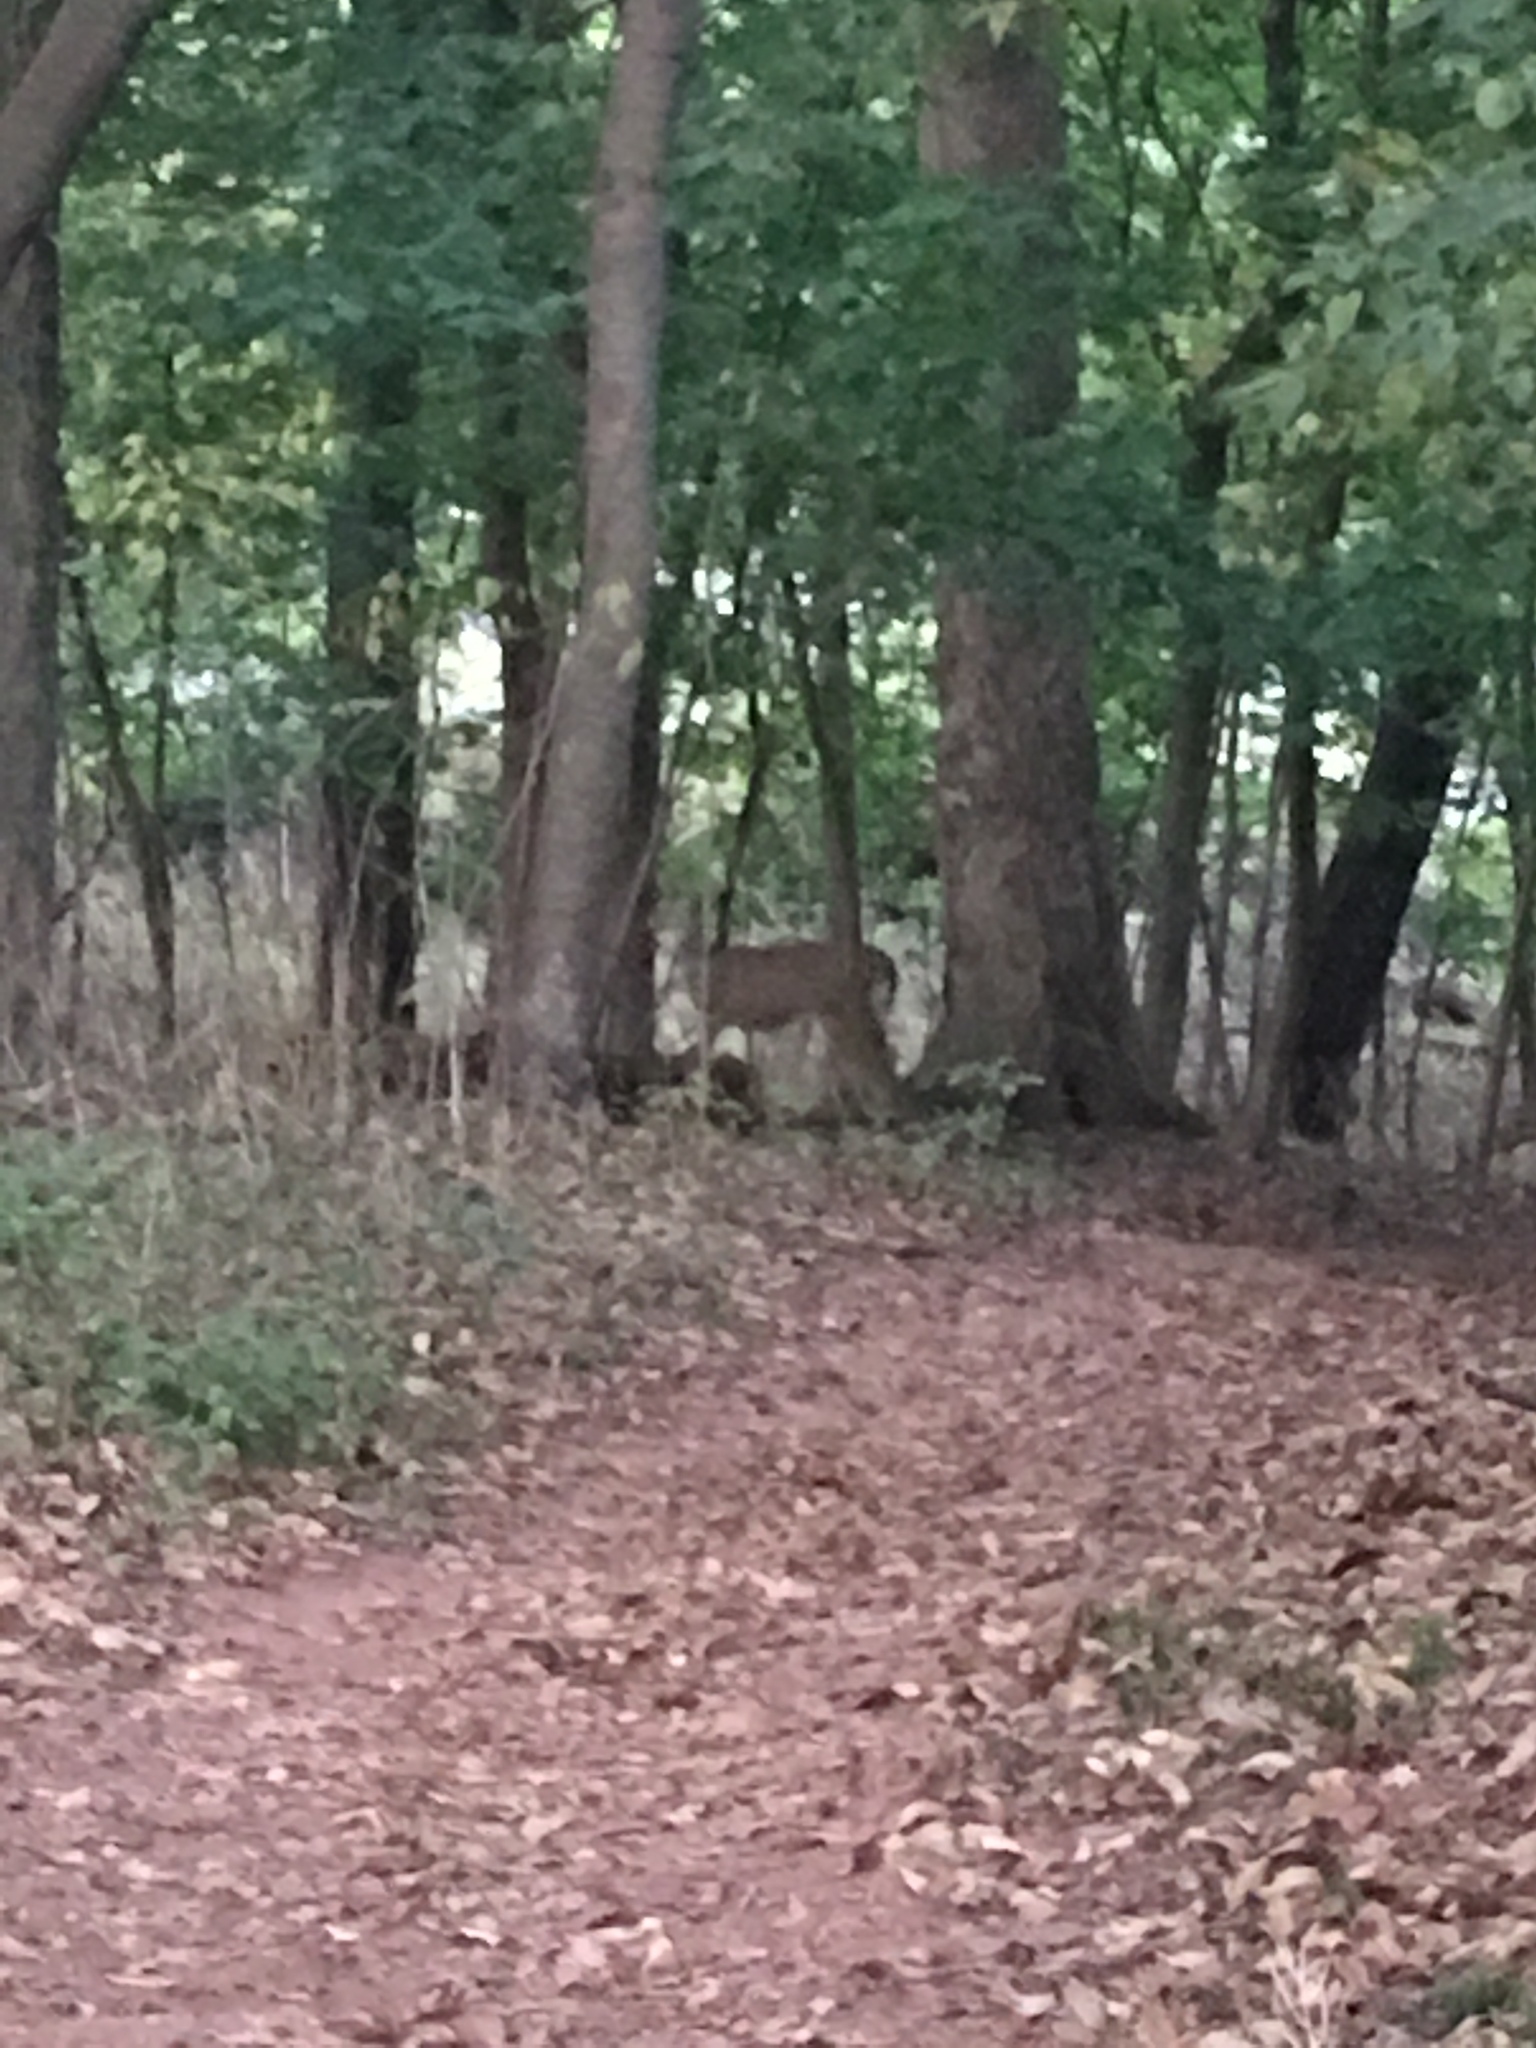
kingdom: Animalia
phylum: Chordata
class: Mammalia
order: Artiodactyla
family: Cervidae
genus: Odocoileus
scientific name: Odocoileus virginianus
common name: White-tailed deer
